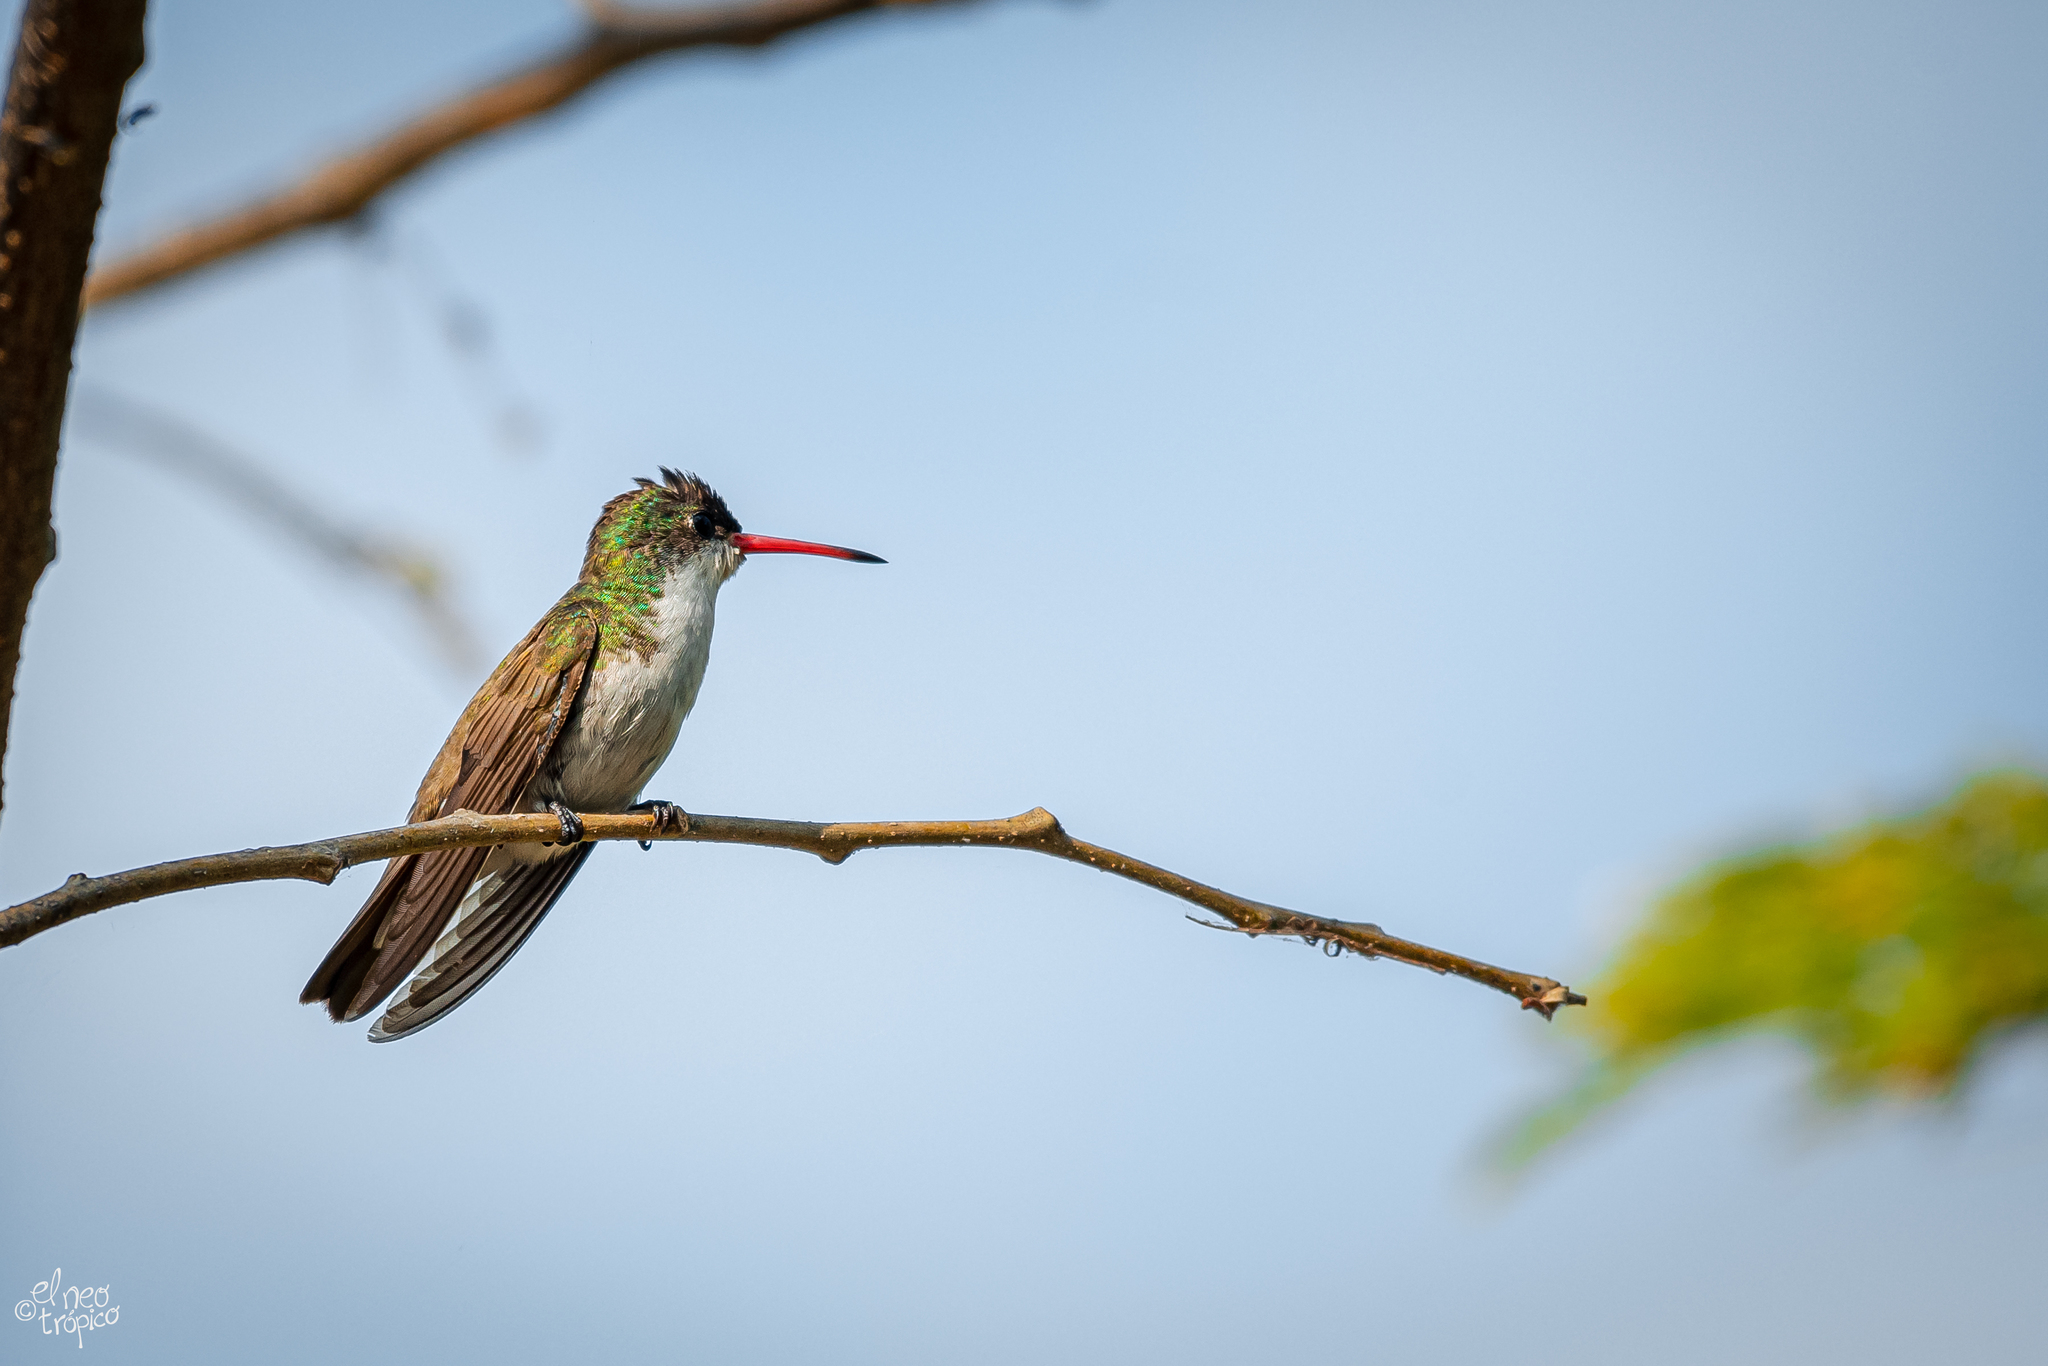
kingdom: Animalia
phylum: Chordata
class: Aves
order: Apodiformes
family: Trochilidae
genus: Leucolia
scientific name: Leucolia viridifrons
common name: Green-fronted hummingbird
